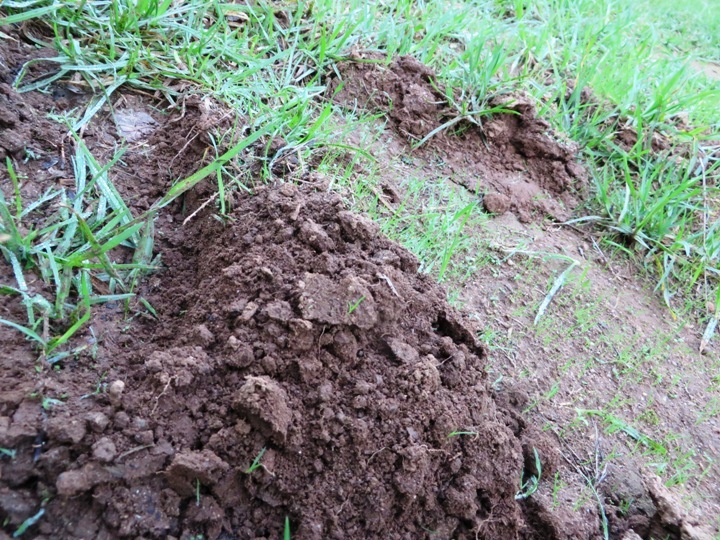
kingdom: Animalia
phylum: Chordata
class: Mammalia
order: Afrosoricida
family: Chrysochloridae
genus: Chrysochloris
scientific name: Chrysochloris asiatica
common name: Cape golden mole
